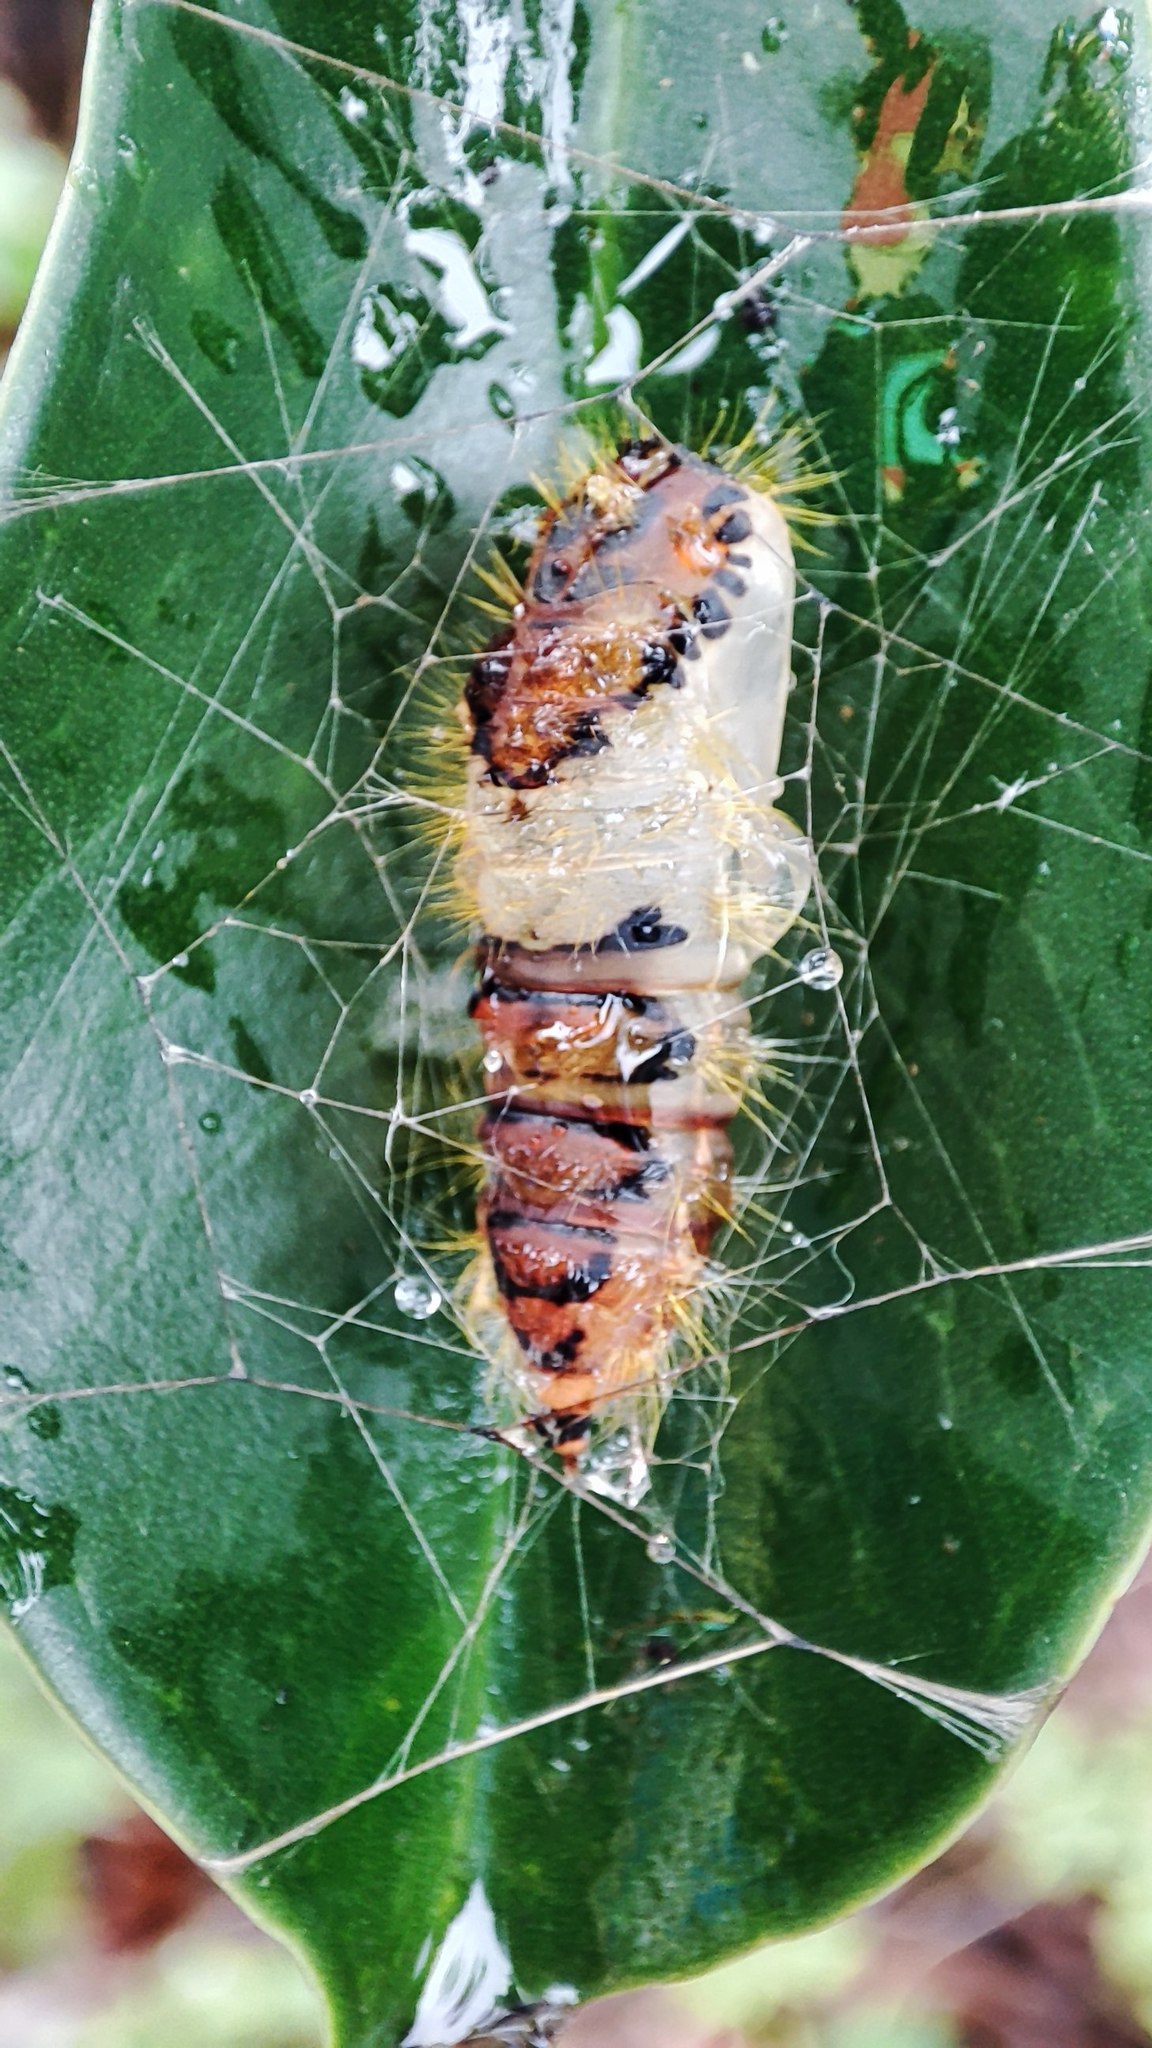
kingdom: Animalia
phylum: Arthropoda
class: Insecta
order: Lepidoptera
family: Erebidae
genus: Perina
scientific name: Perina nuda
